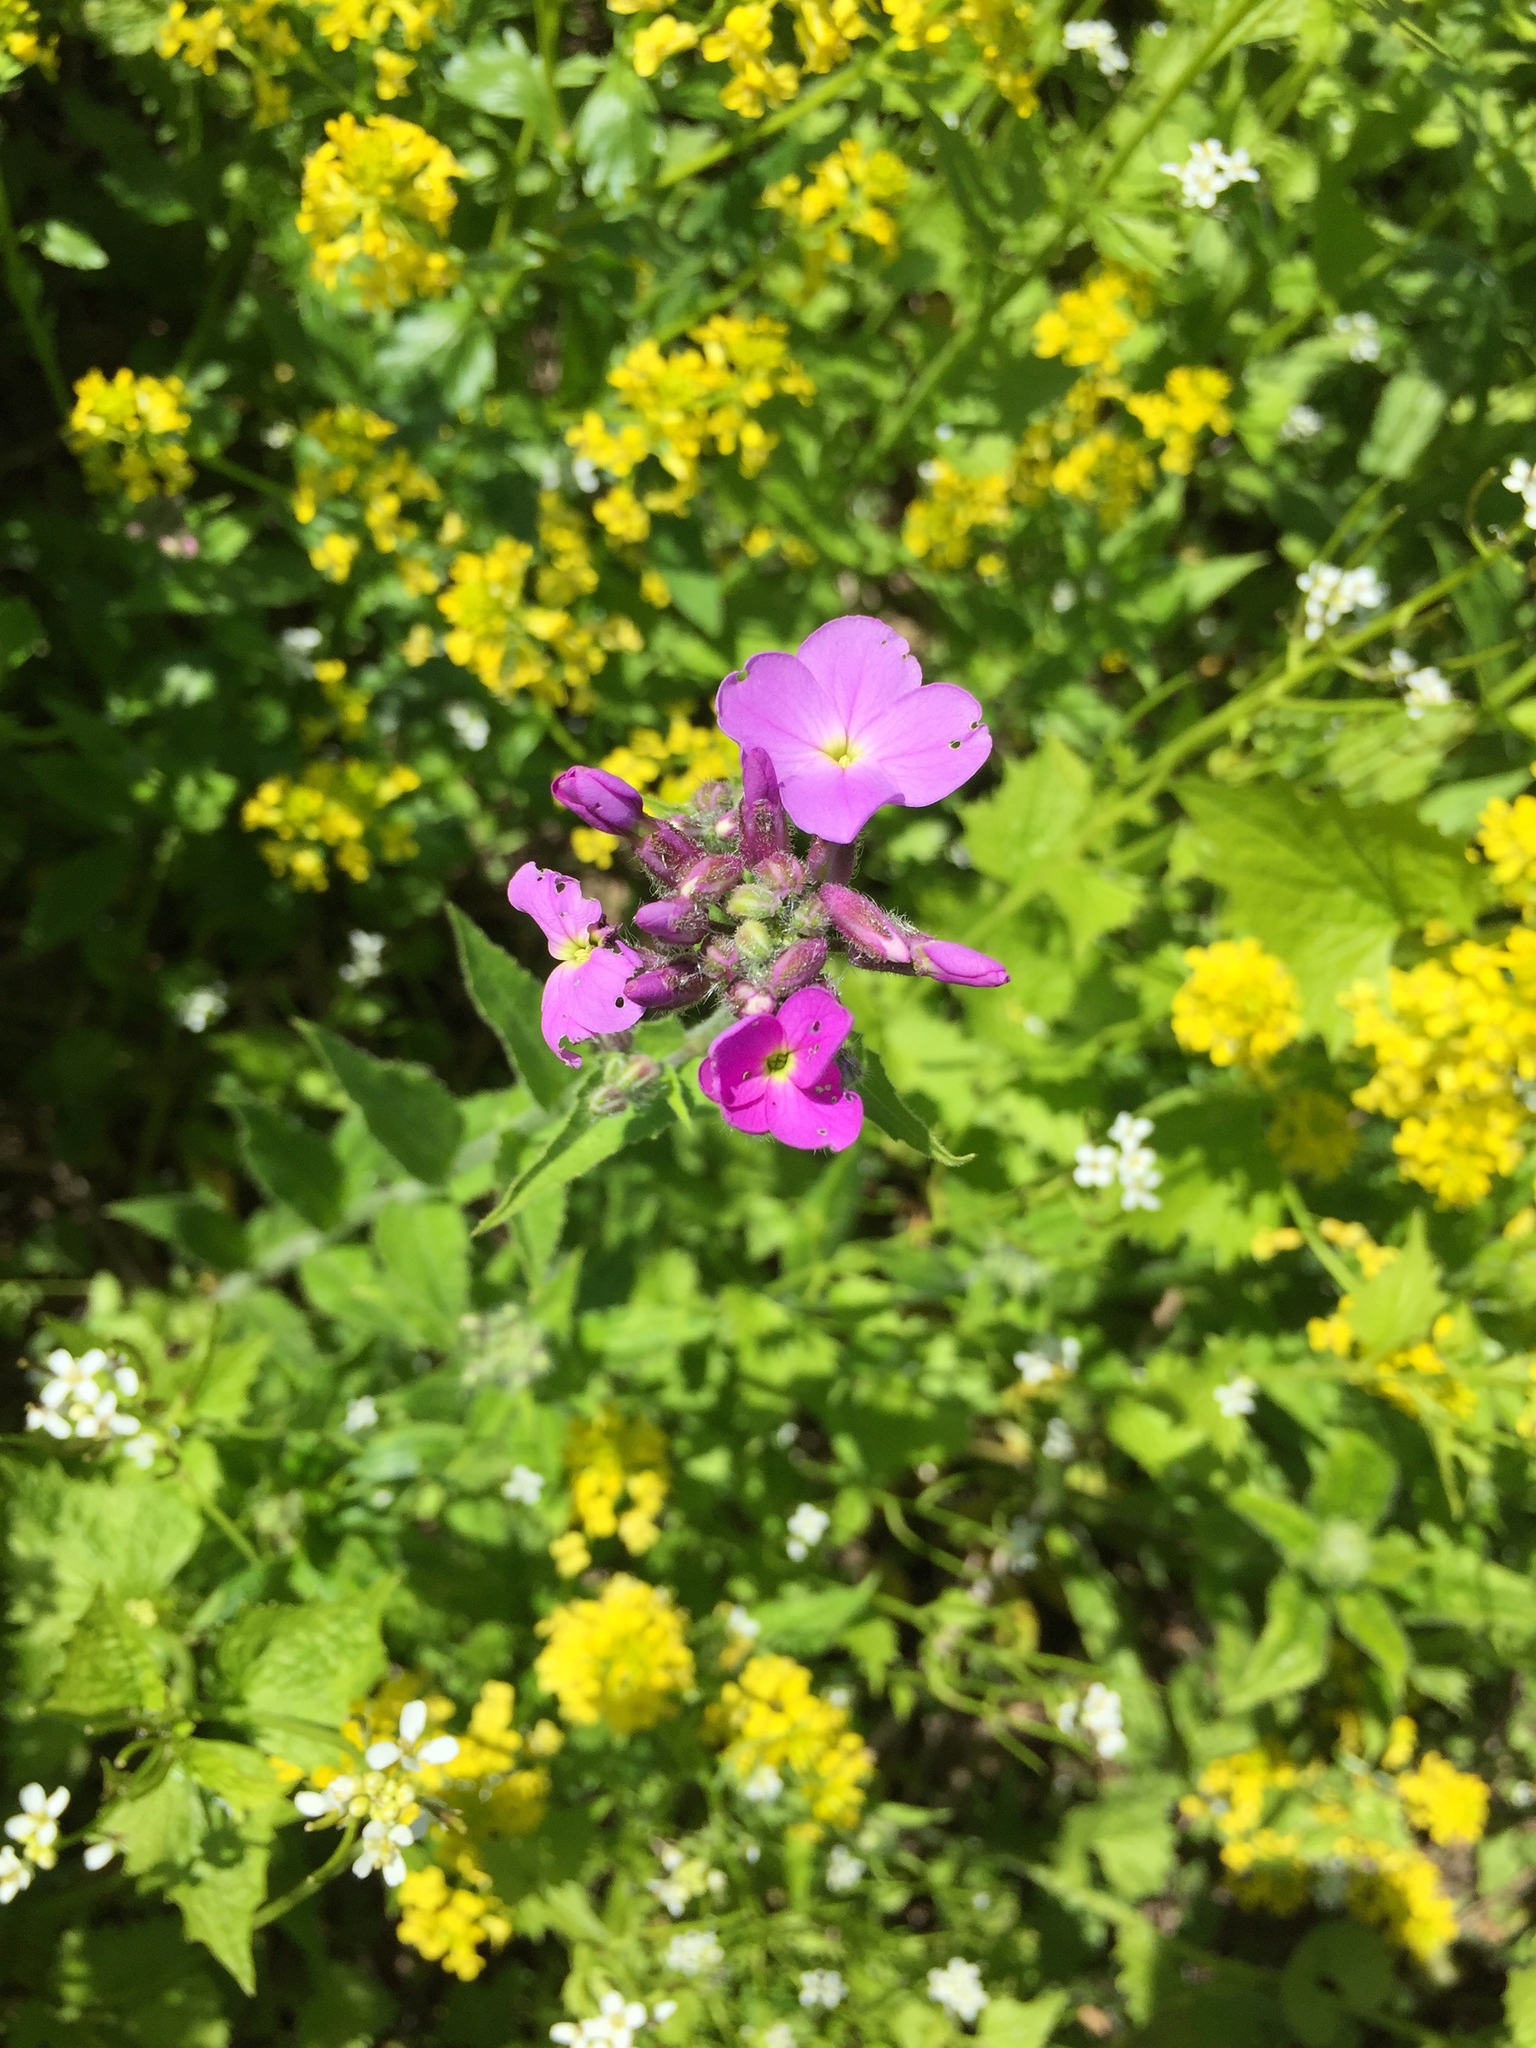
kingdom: Plantae
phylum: Tracheophyta
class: Magnoliopsida
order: Brassicales
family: Brassicaceae
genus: Hesperis
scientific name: Hesperis matronalis
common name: Dame's-violet
